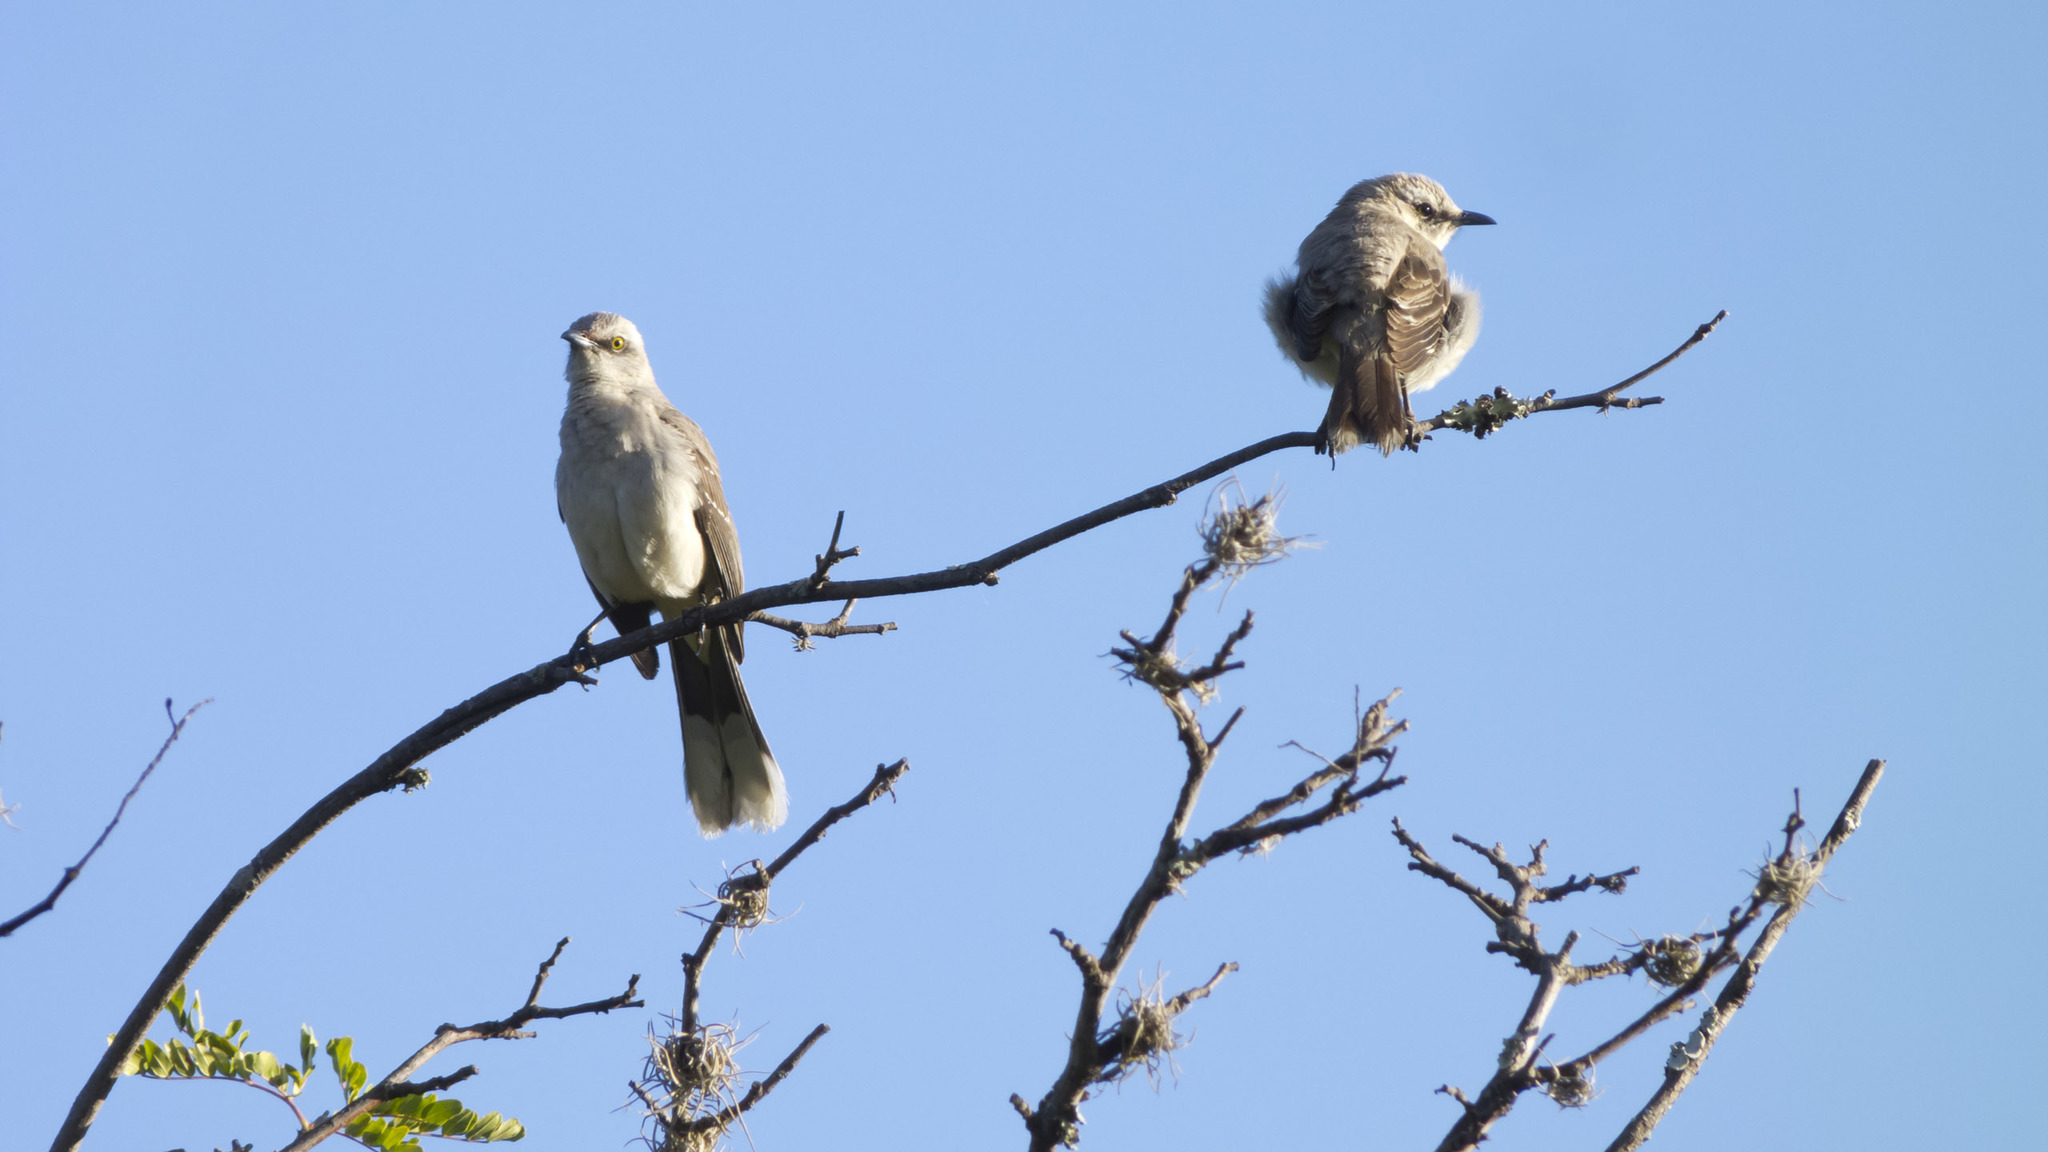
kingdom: Animalia
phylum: Chordata
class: Aves
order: Passeriformes
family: Mimidae
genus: Mimus
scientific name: Mimus gilvus
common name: Tropical mockingbird
